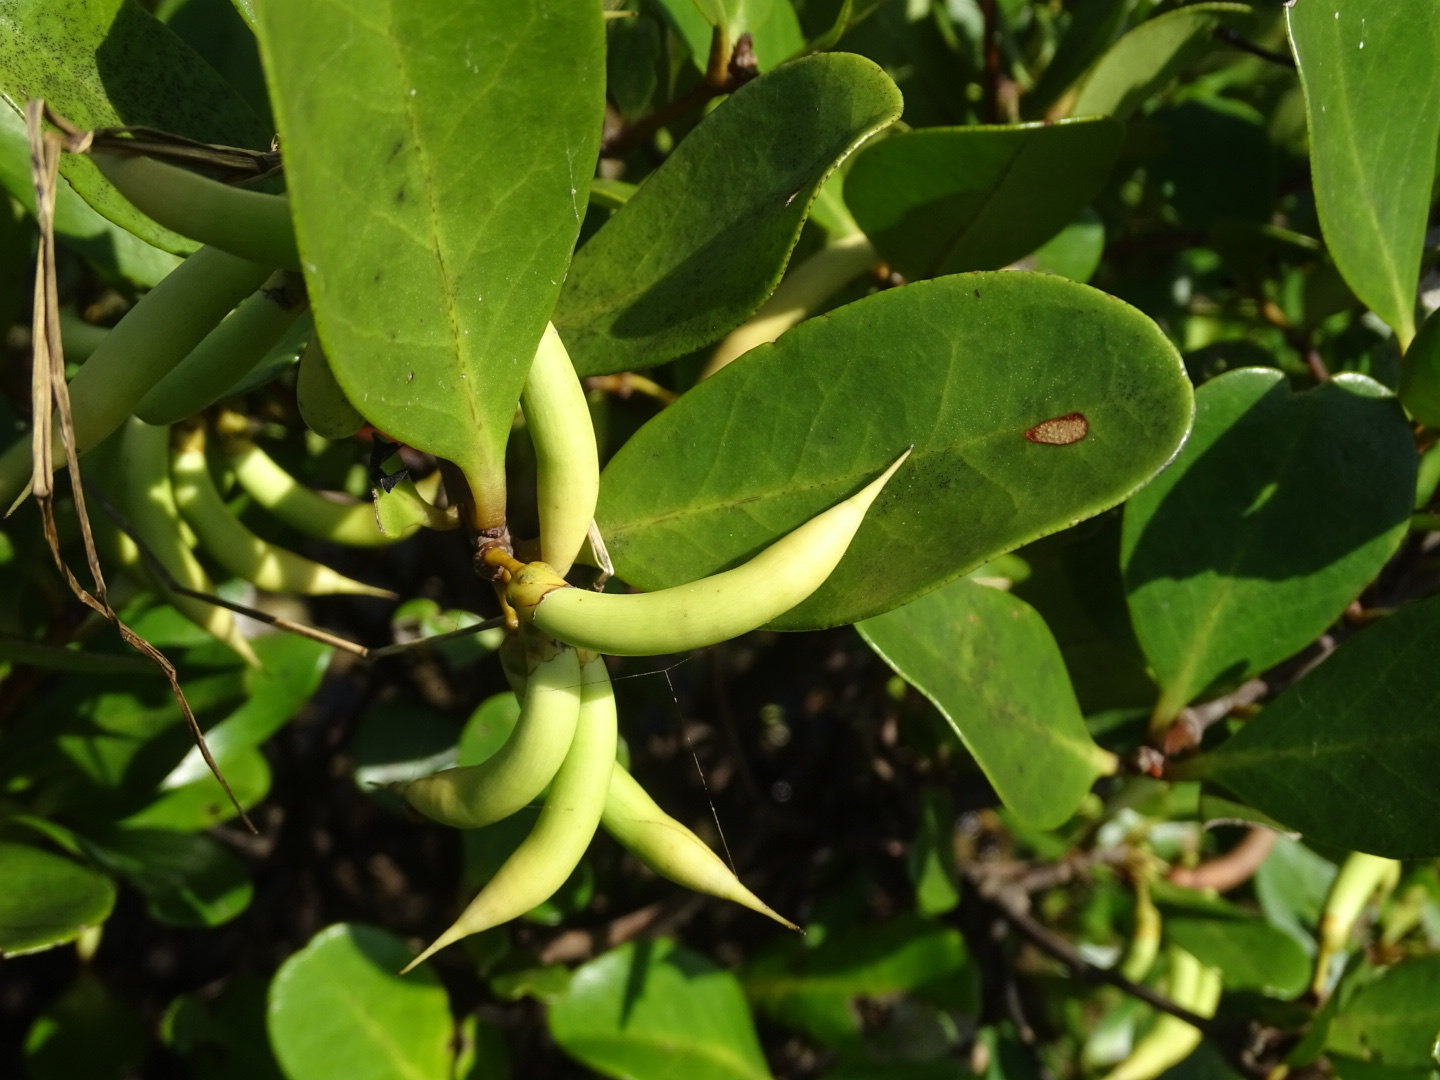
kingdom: Plantae
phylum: Tracheophyta
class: Magnoliopsida
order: Ericales
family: Primulaceae
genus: Aegiceras
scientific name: Aegiceras corniculatum
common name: River mangrove
